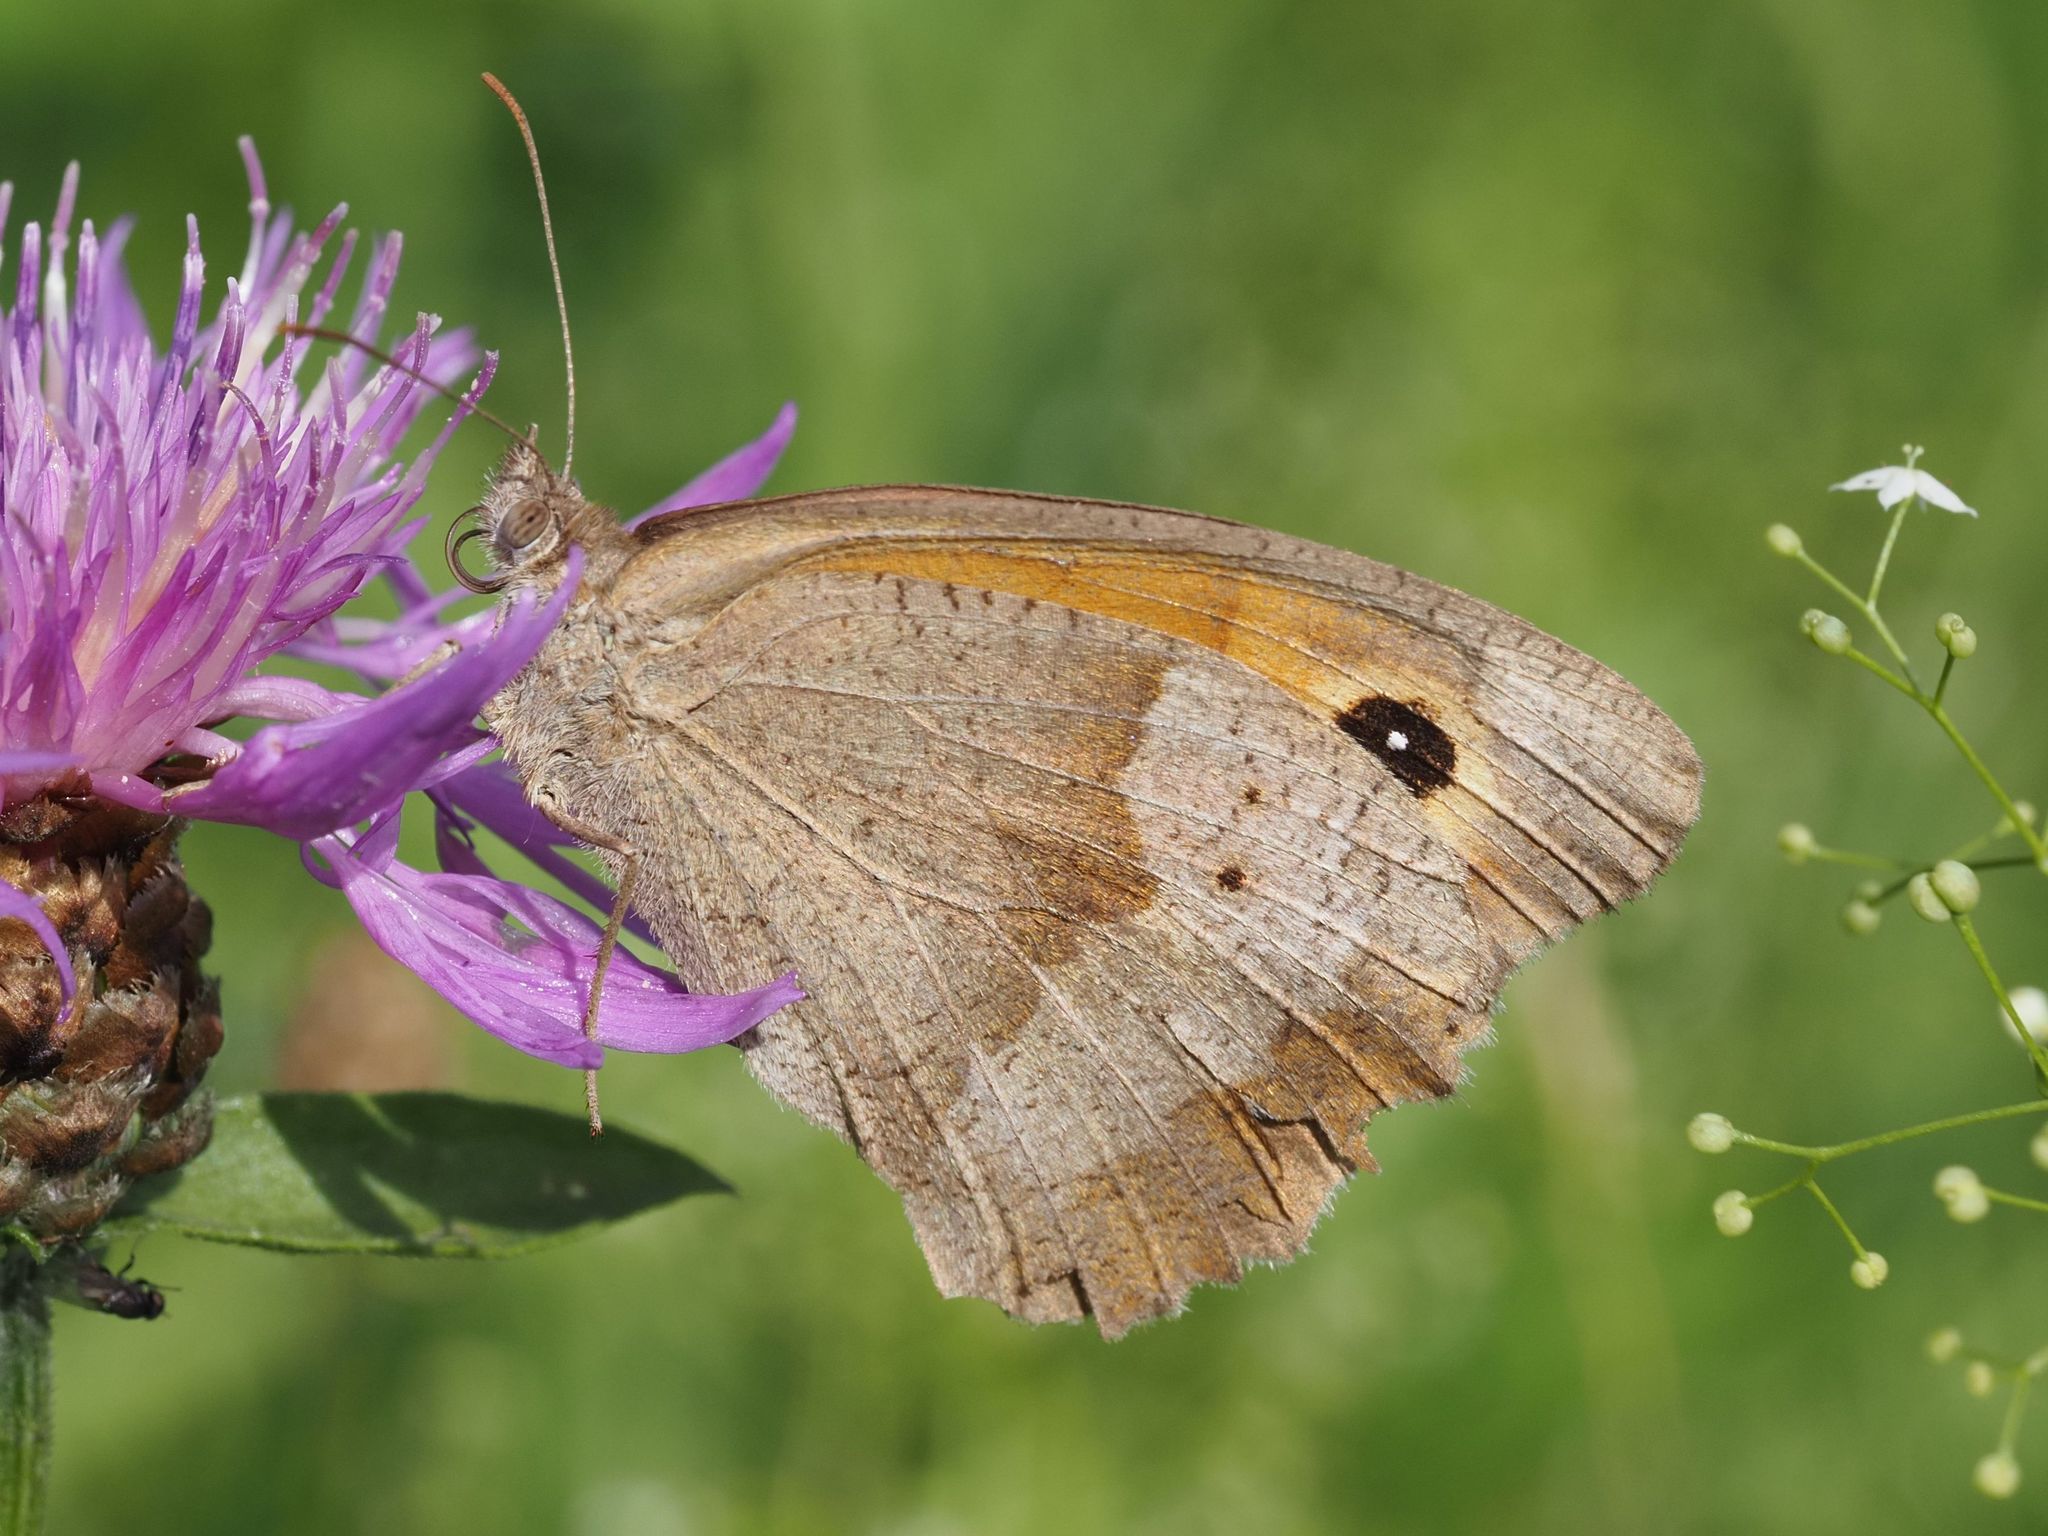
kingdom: Animalia
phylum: Arthropoda
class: Insecta
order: Lepidoptera
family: Nymphalidae
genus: Maniola
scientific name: Maniola jurtina
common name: Meadow brown
